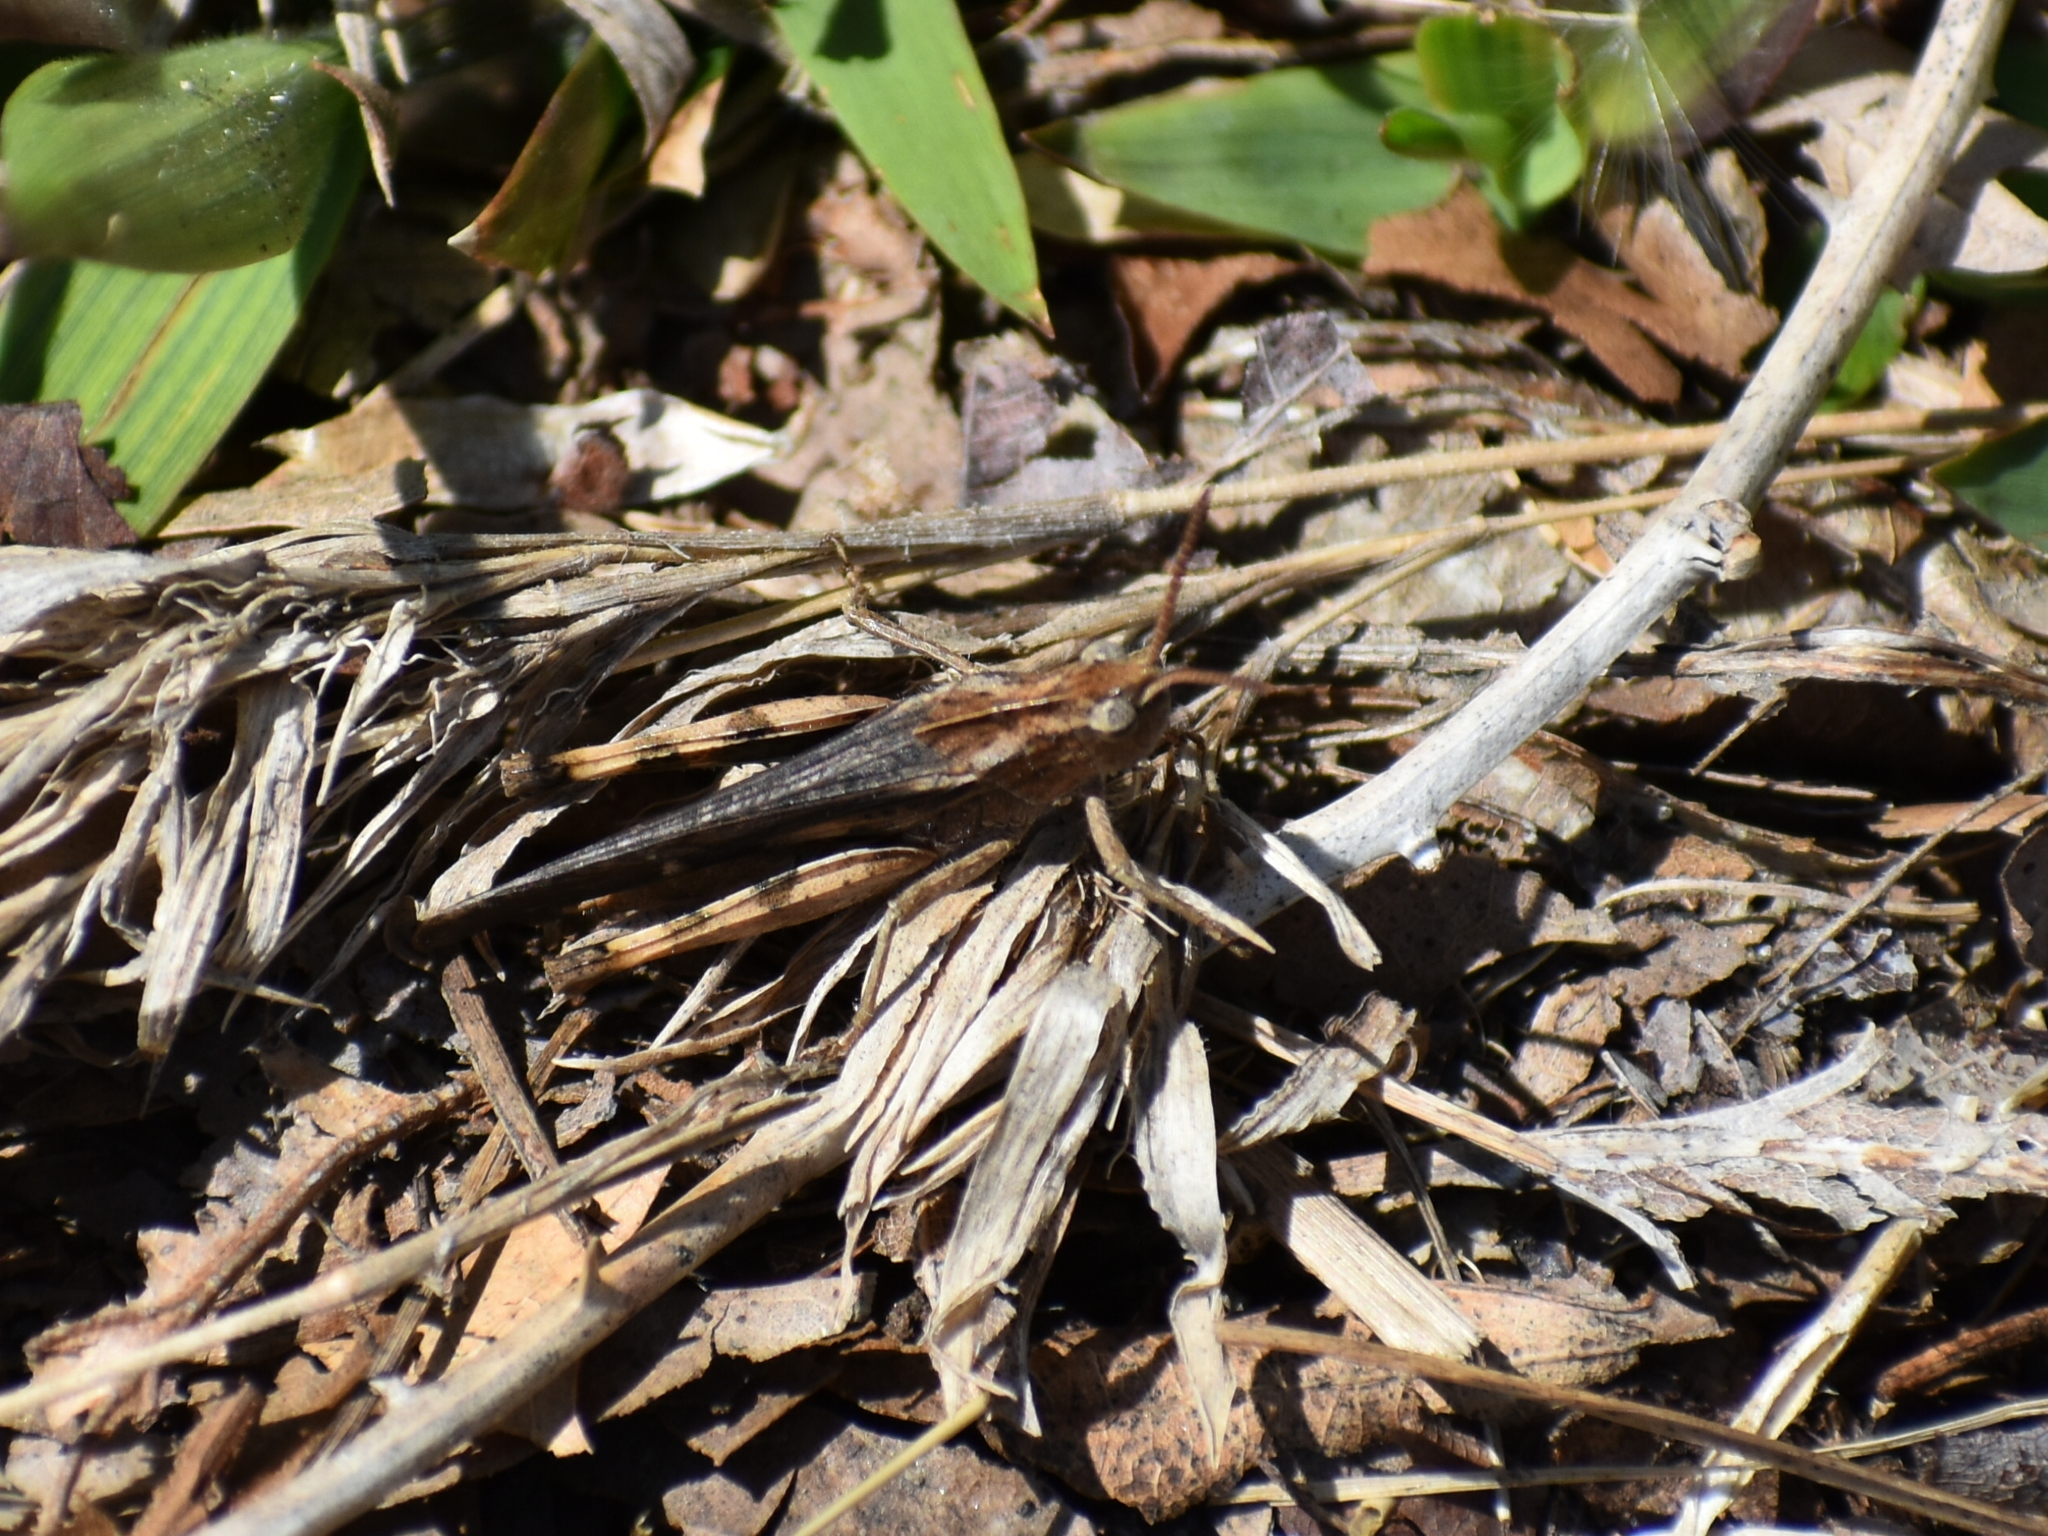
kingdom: Animalia
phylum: Arthropoda
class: Insecta
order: Orthoptera
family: Acrididae
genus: Chortophaga
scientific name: Chortophaga viridifasciata
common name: Green-striped grasshopper
